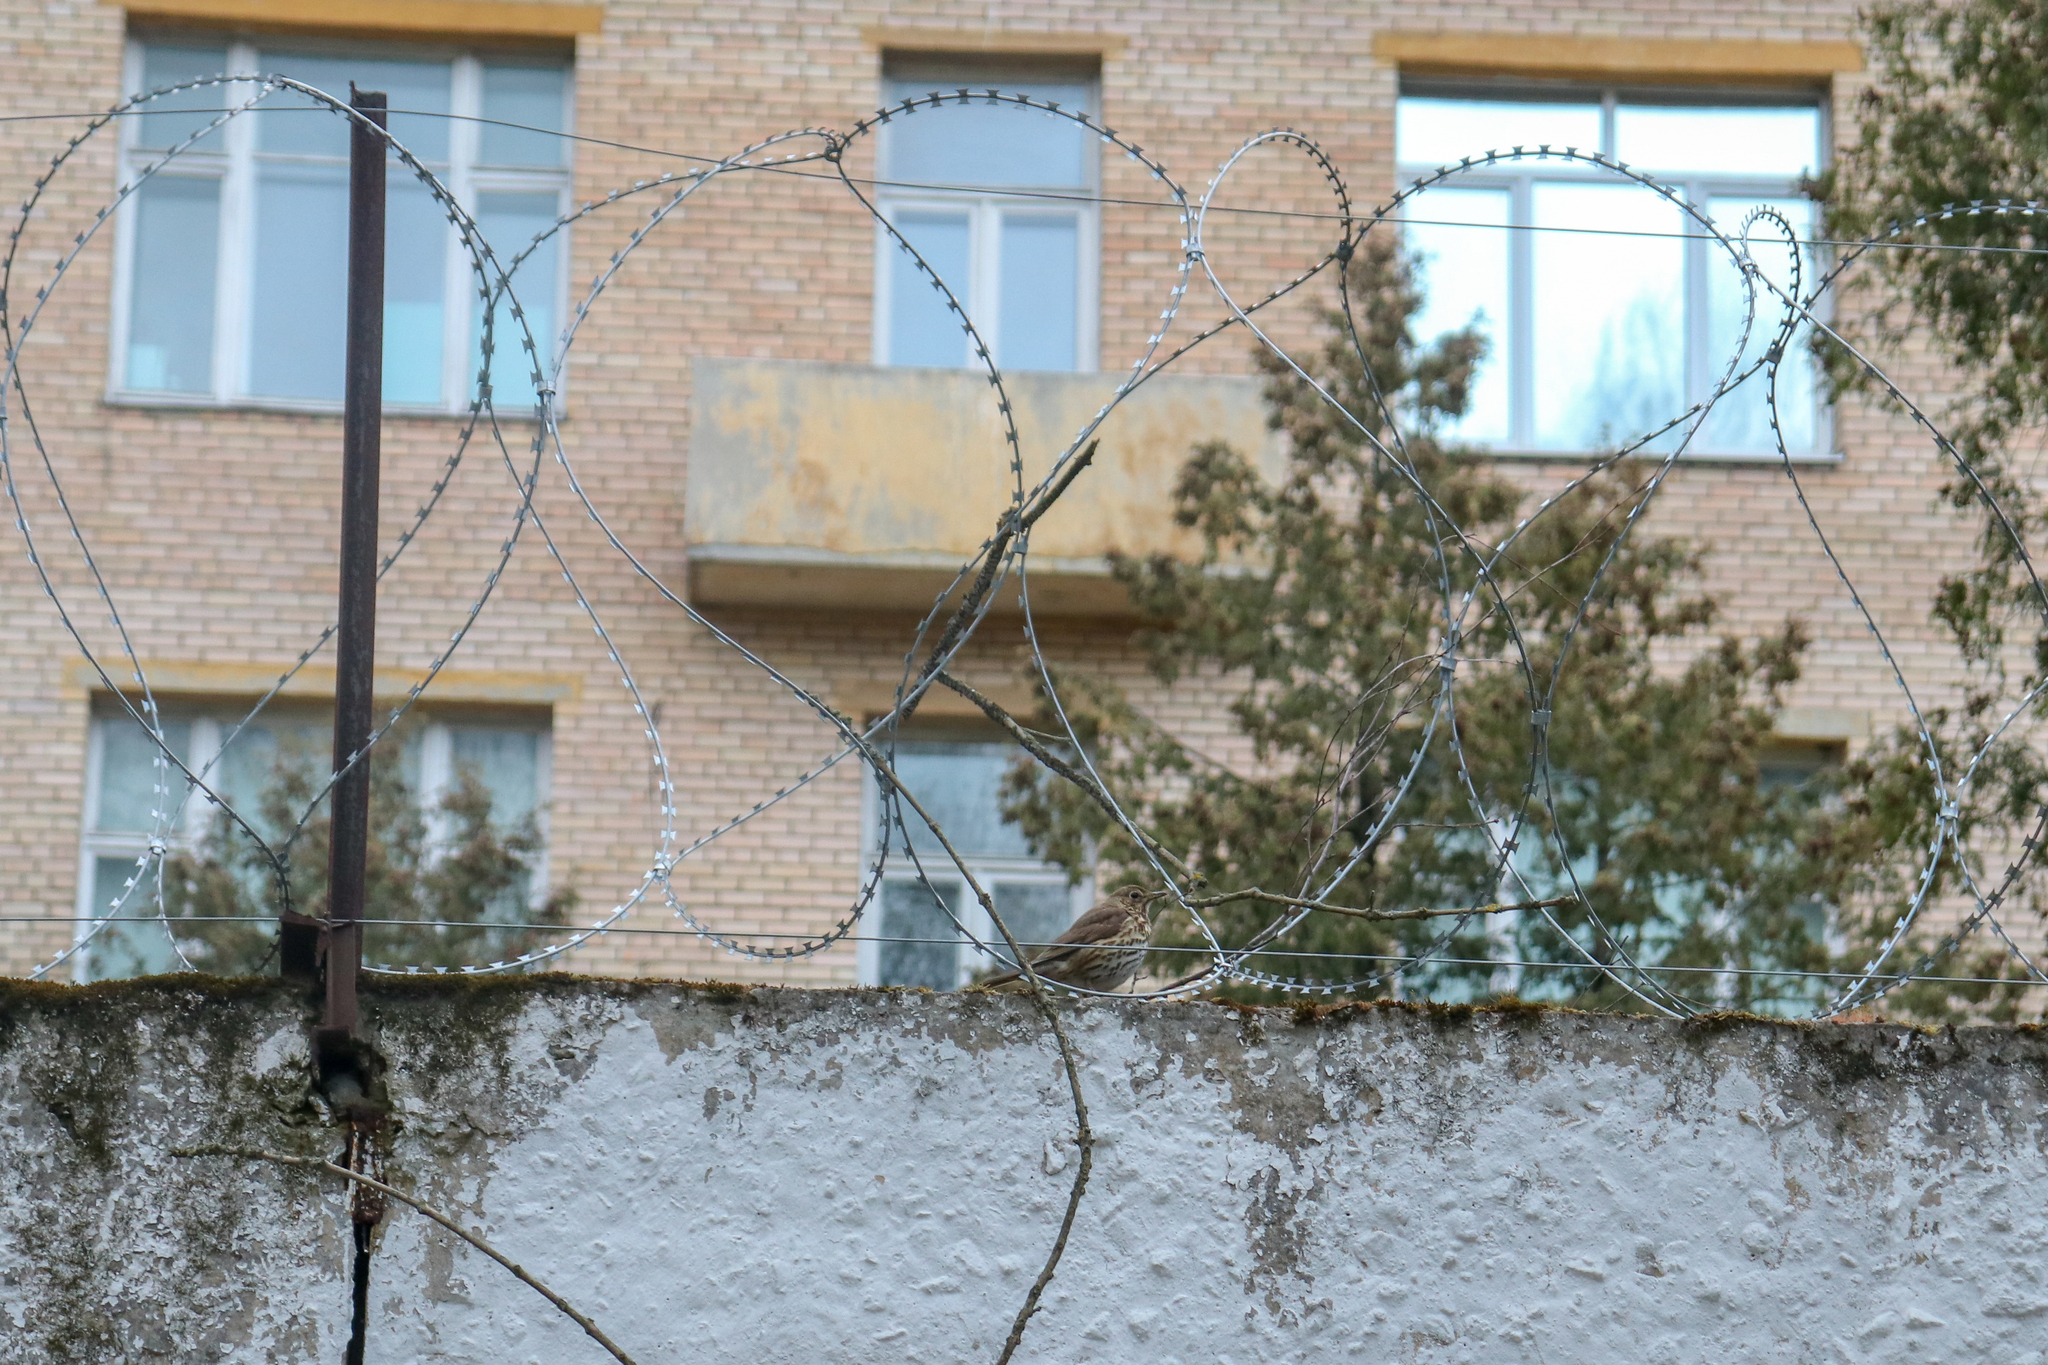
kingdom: Animalia
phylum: Chordata
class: Aves
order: Passeriformes
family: Turdidae
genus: Turdus
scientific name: Turdus philomelos
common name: Song thrush
